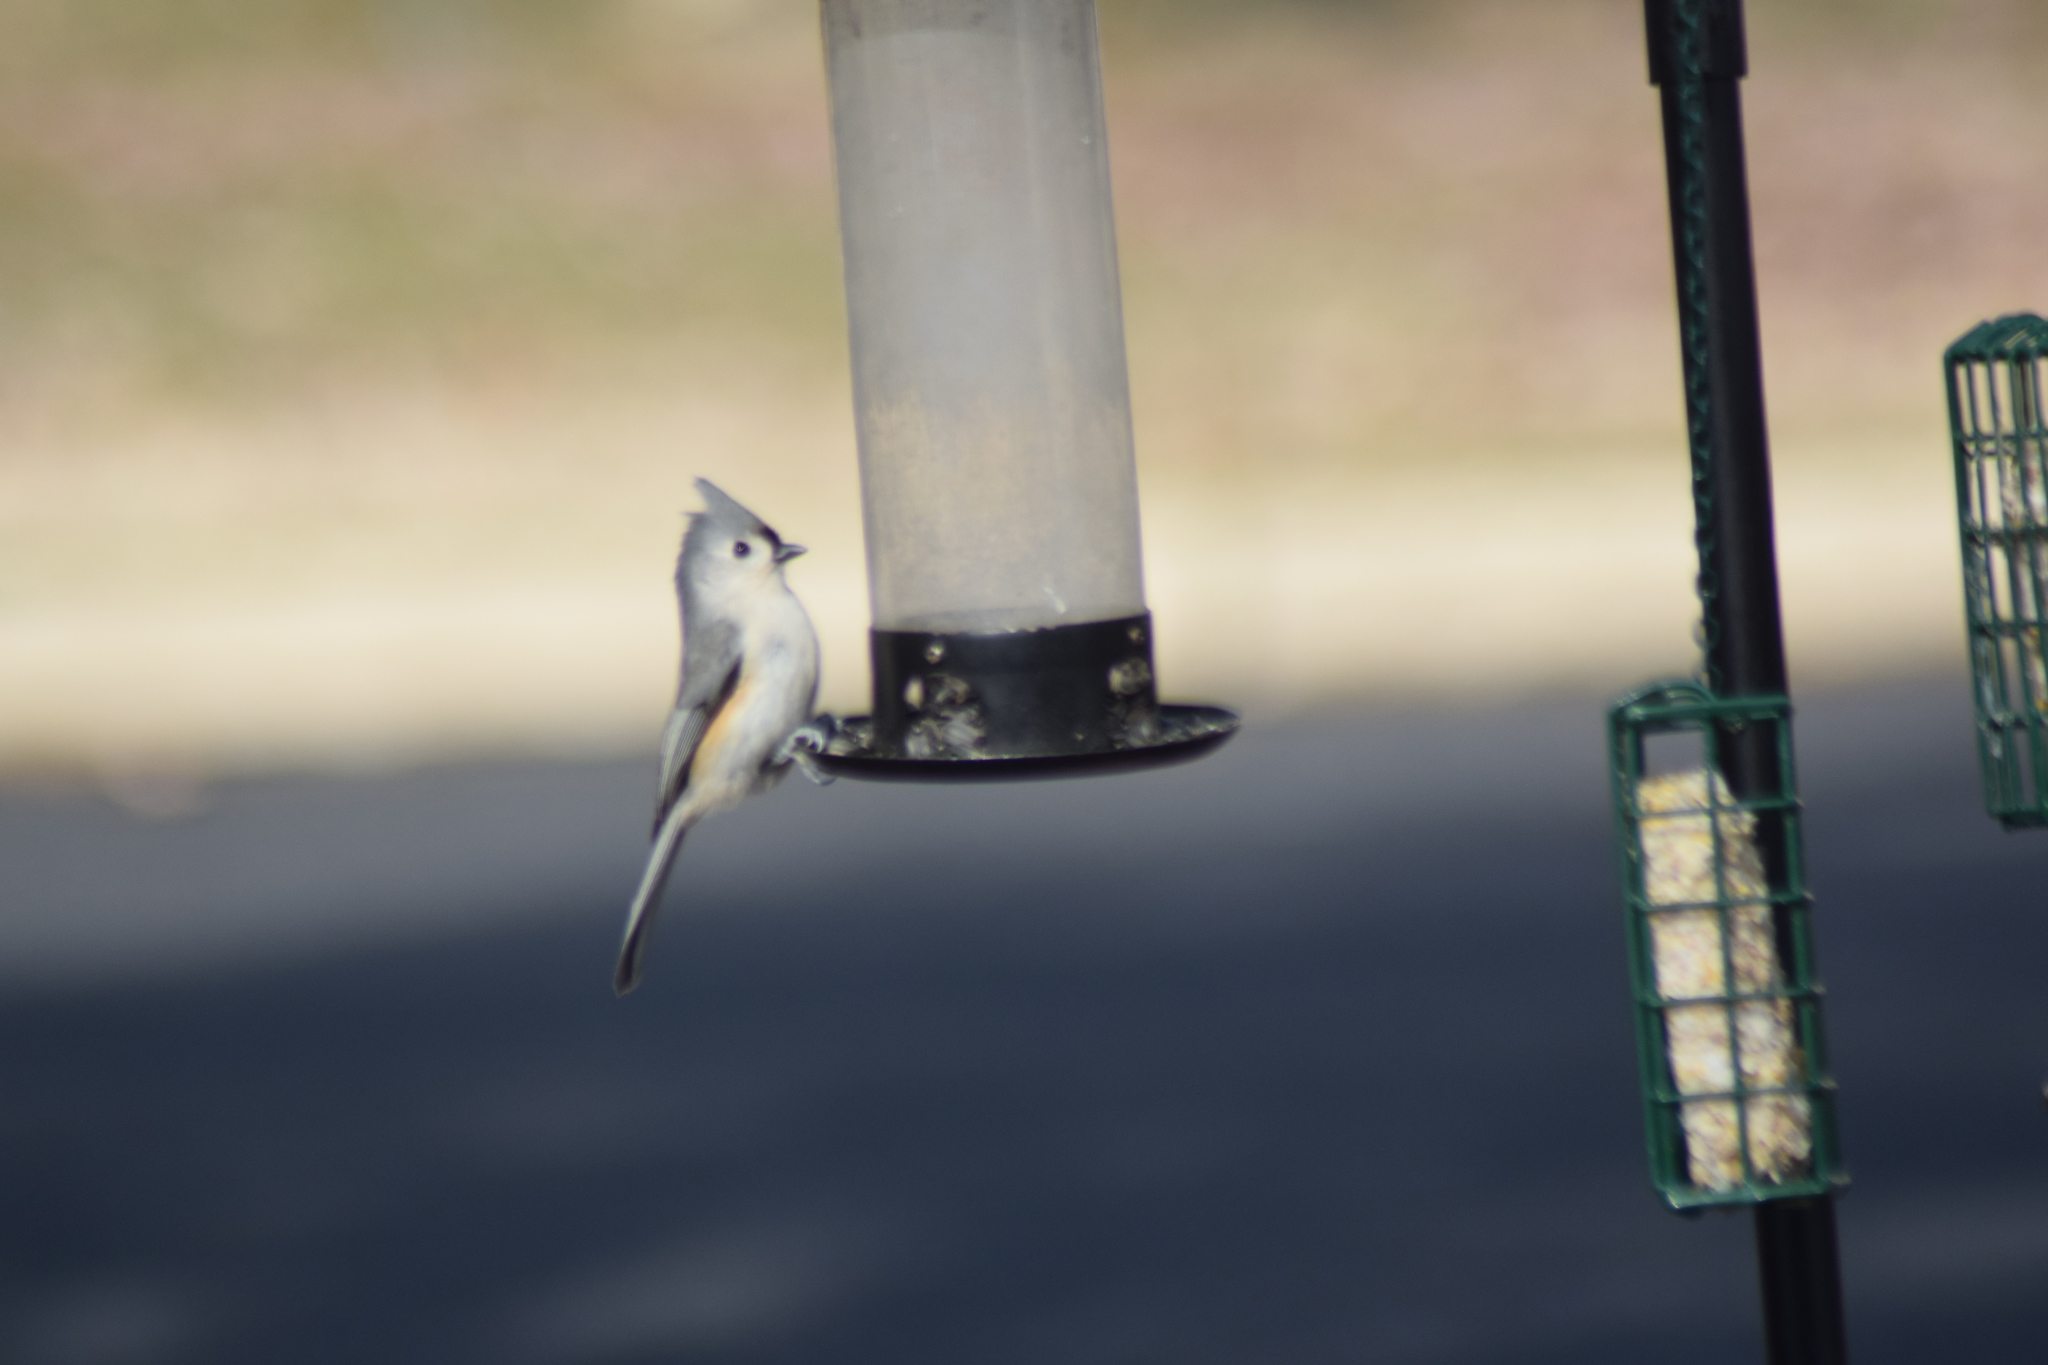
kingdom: Animalia
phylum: Chordata
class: Aves
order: Passeriformes
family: Paridae
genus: Baeolophus
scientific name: Baeolophus bicolor
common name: Tufted titmouse
